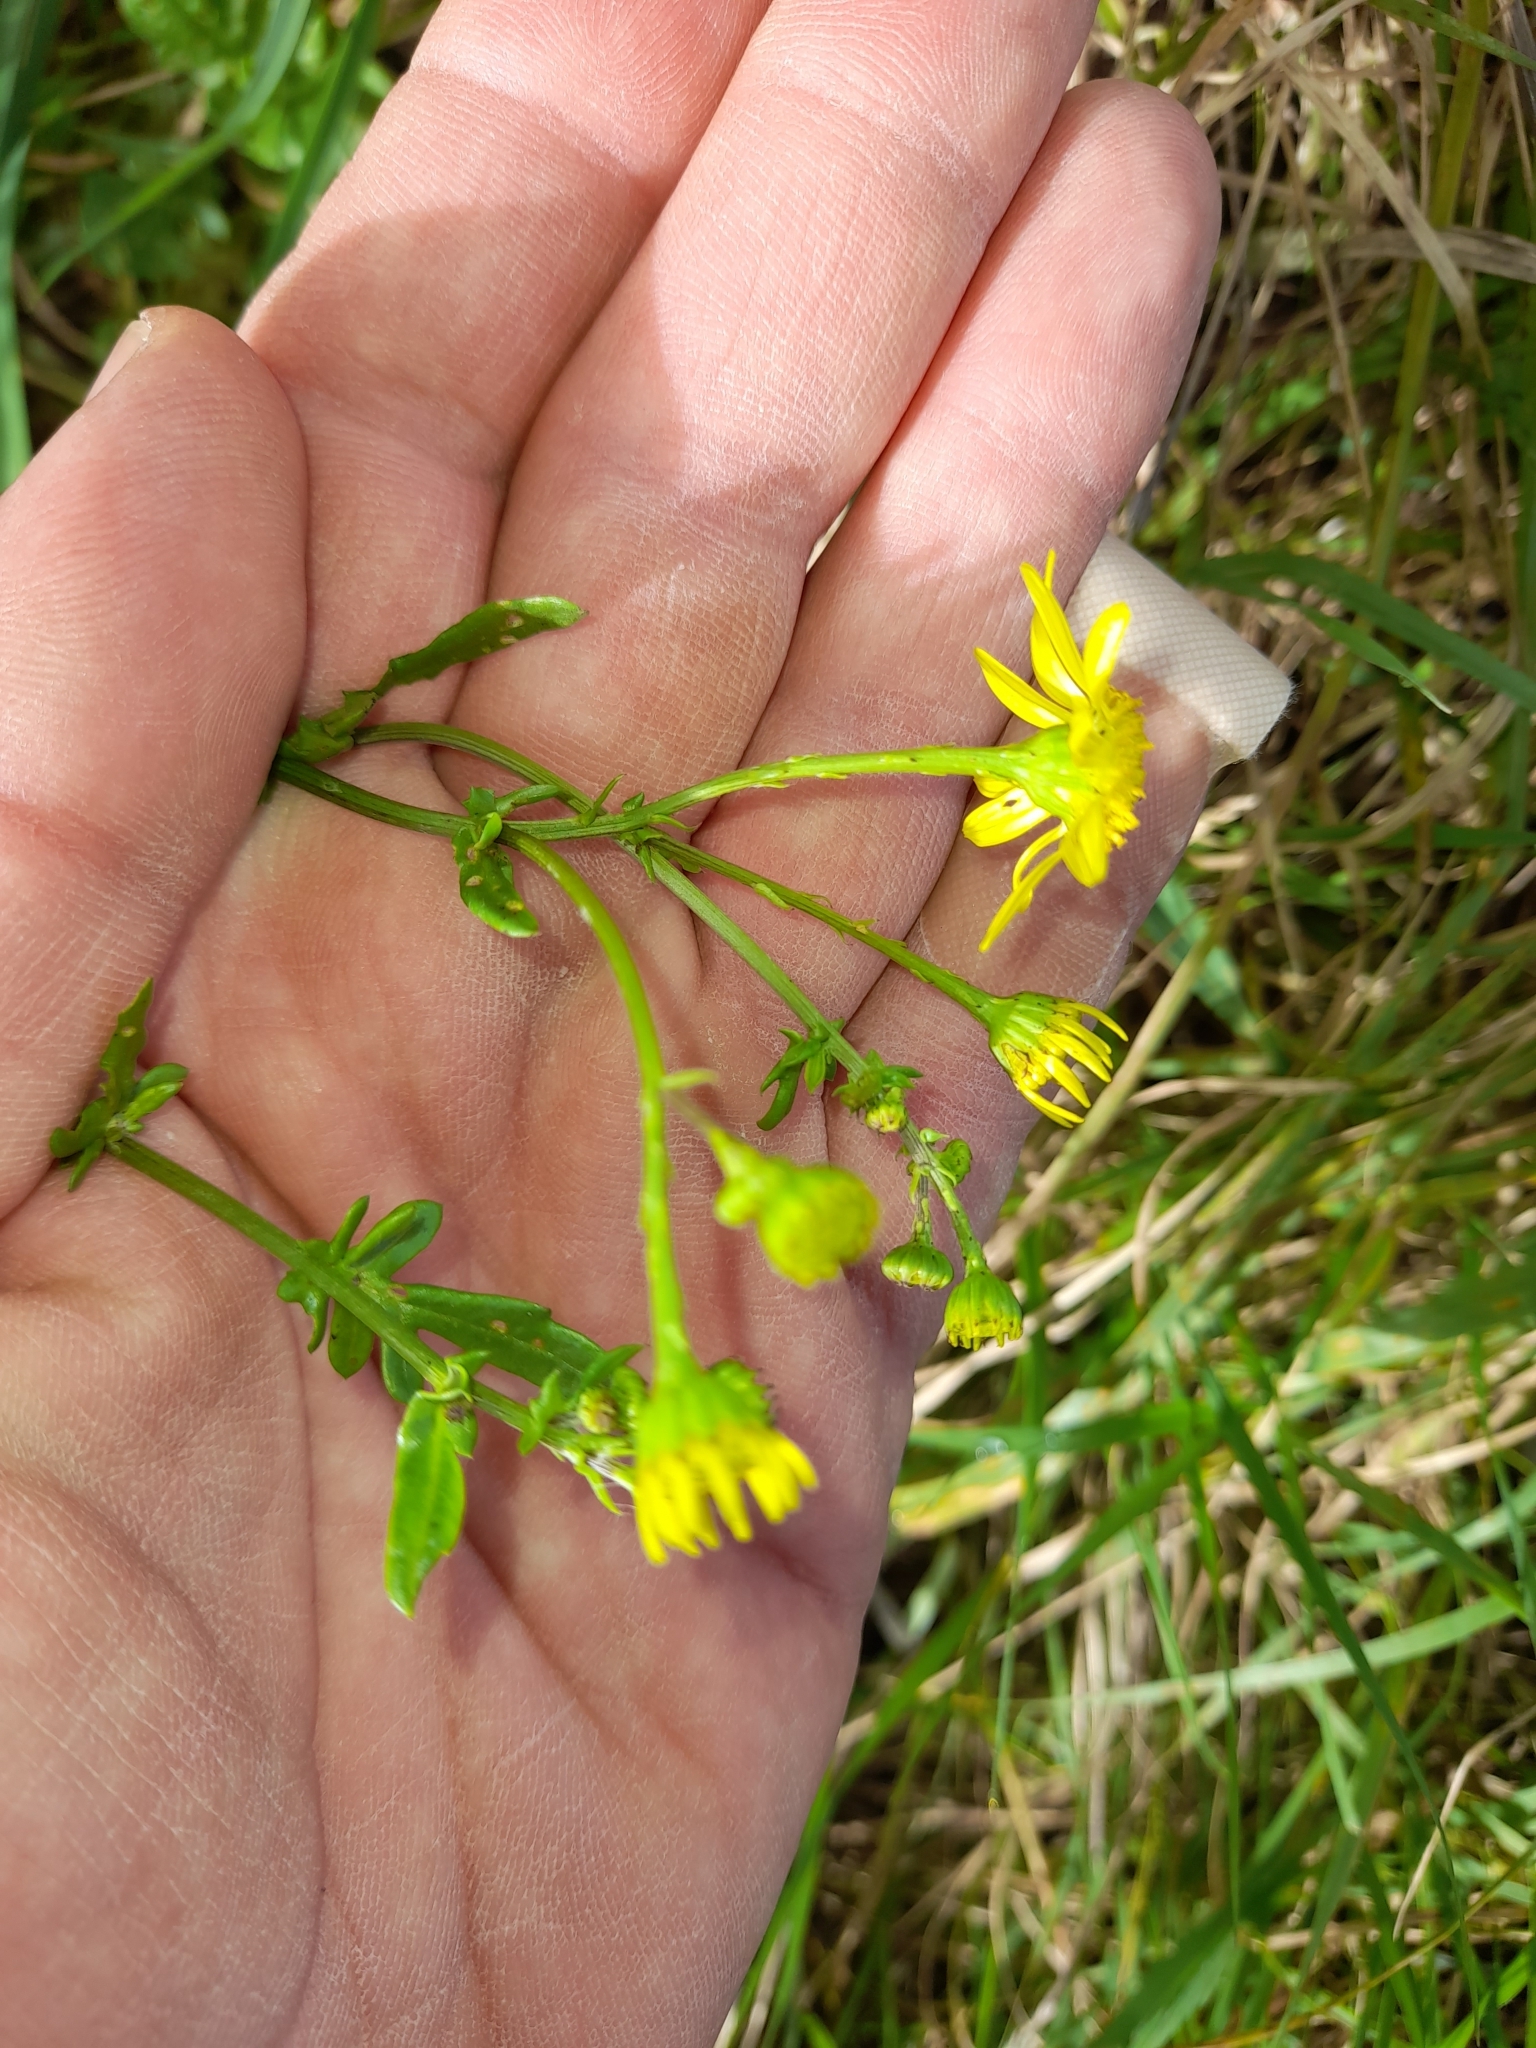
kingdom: Plantae
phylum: Tracheophyta
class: Magnoliopsida
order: Asterales
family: Asteraceae
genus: Jacobaea
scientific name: Jacobaea erratica
